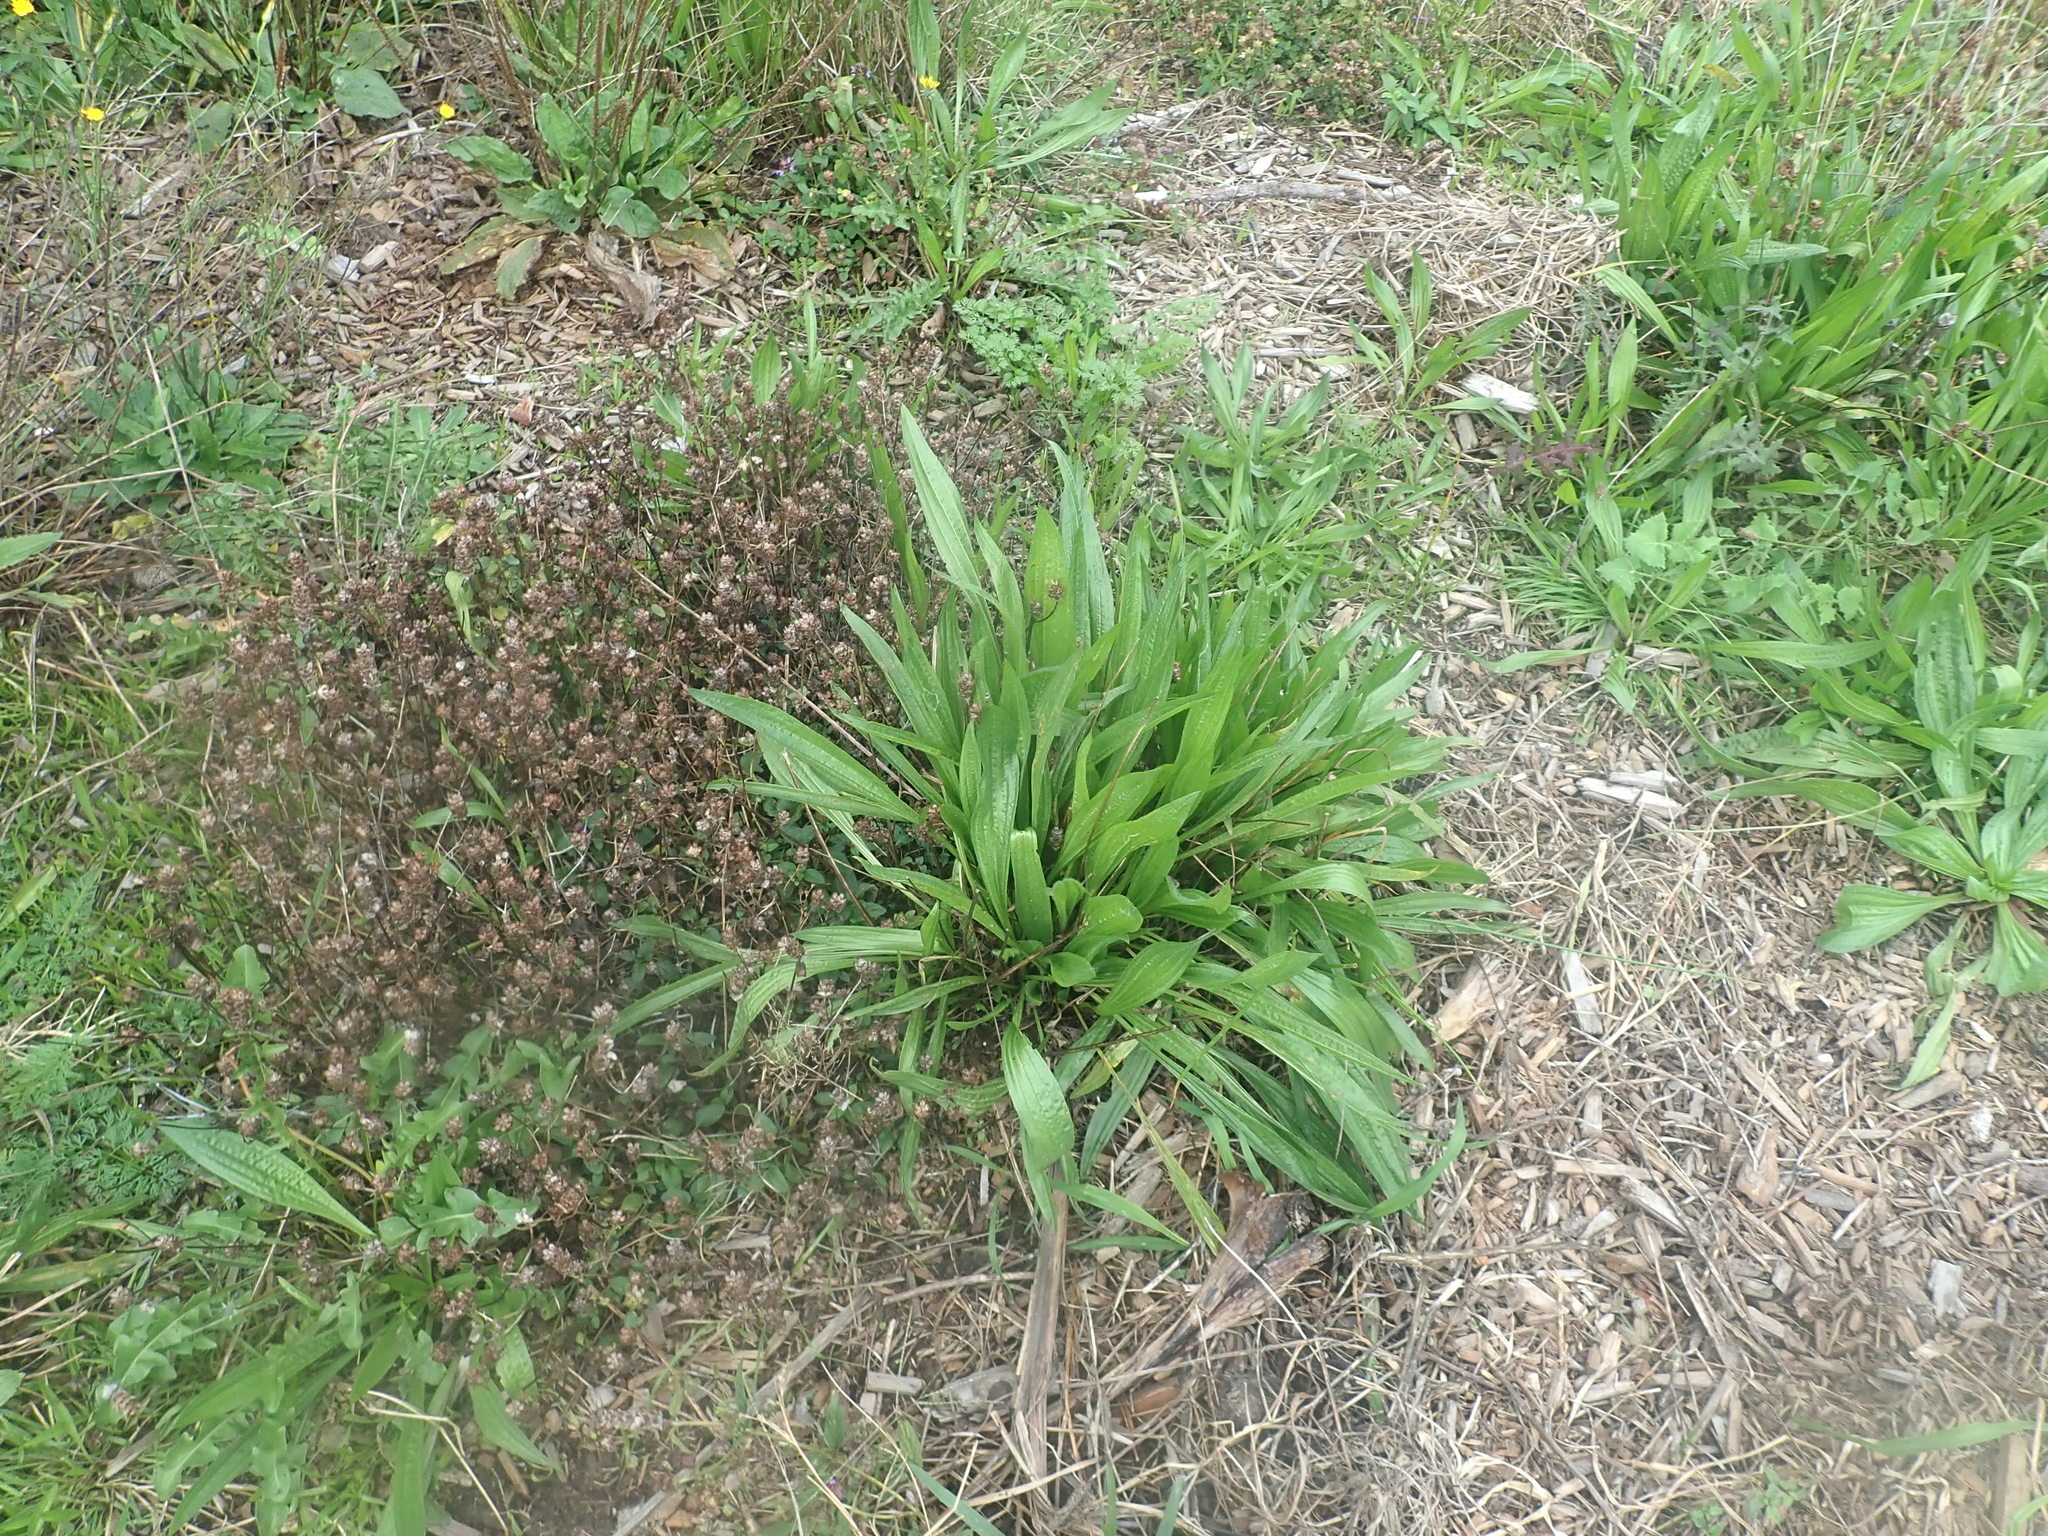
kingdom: Plantae
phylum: Tracheophyta
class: Magnoliopsida
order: Lamiales
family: Plantaginaceae
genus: Plantago
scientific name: Plantago lanceolata
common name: Ribwort plantain
